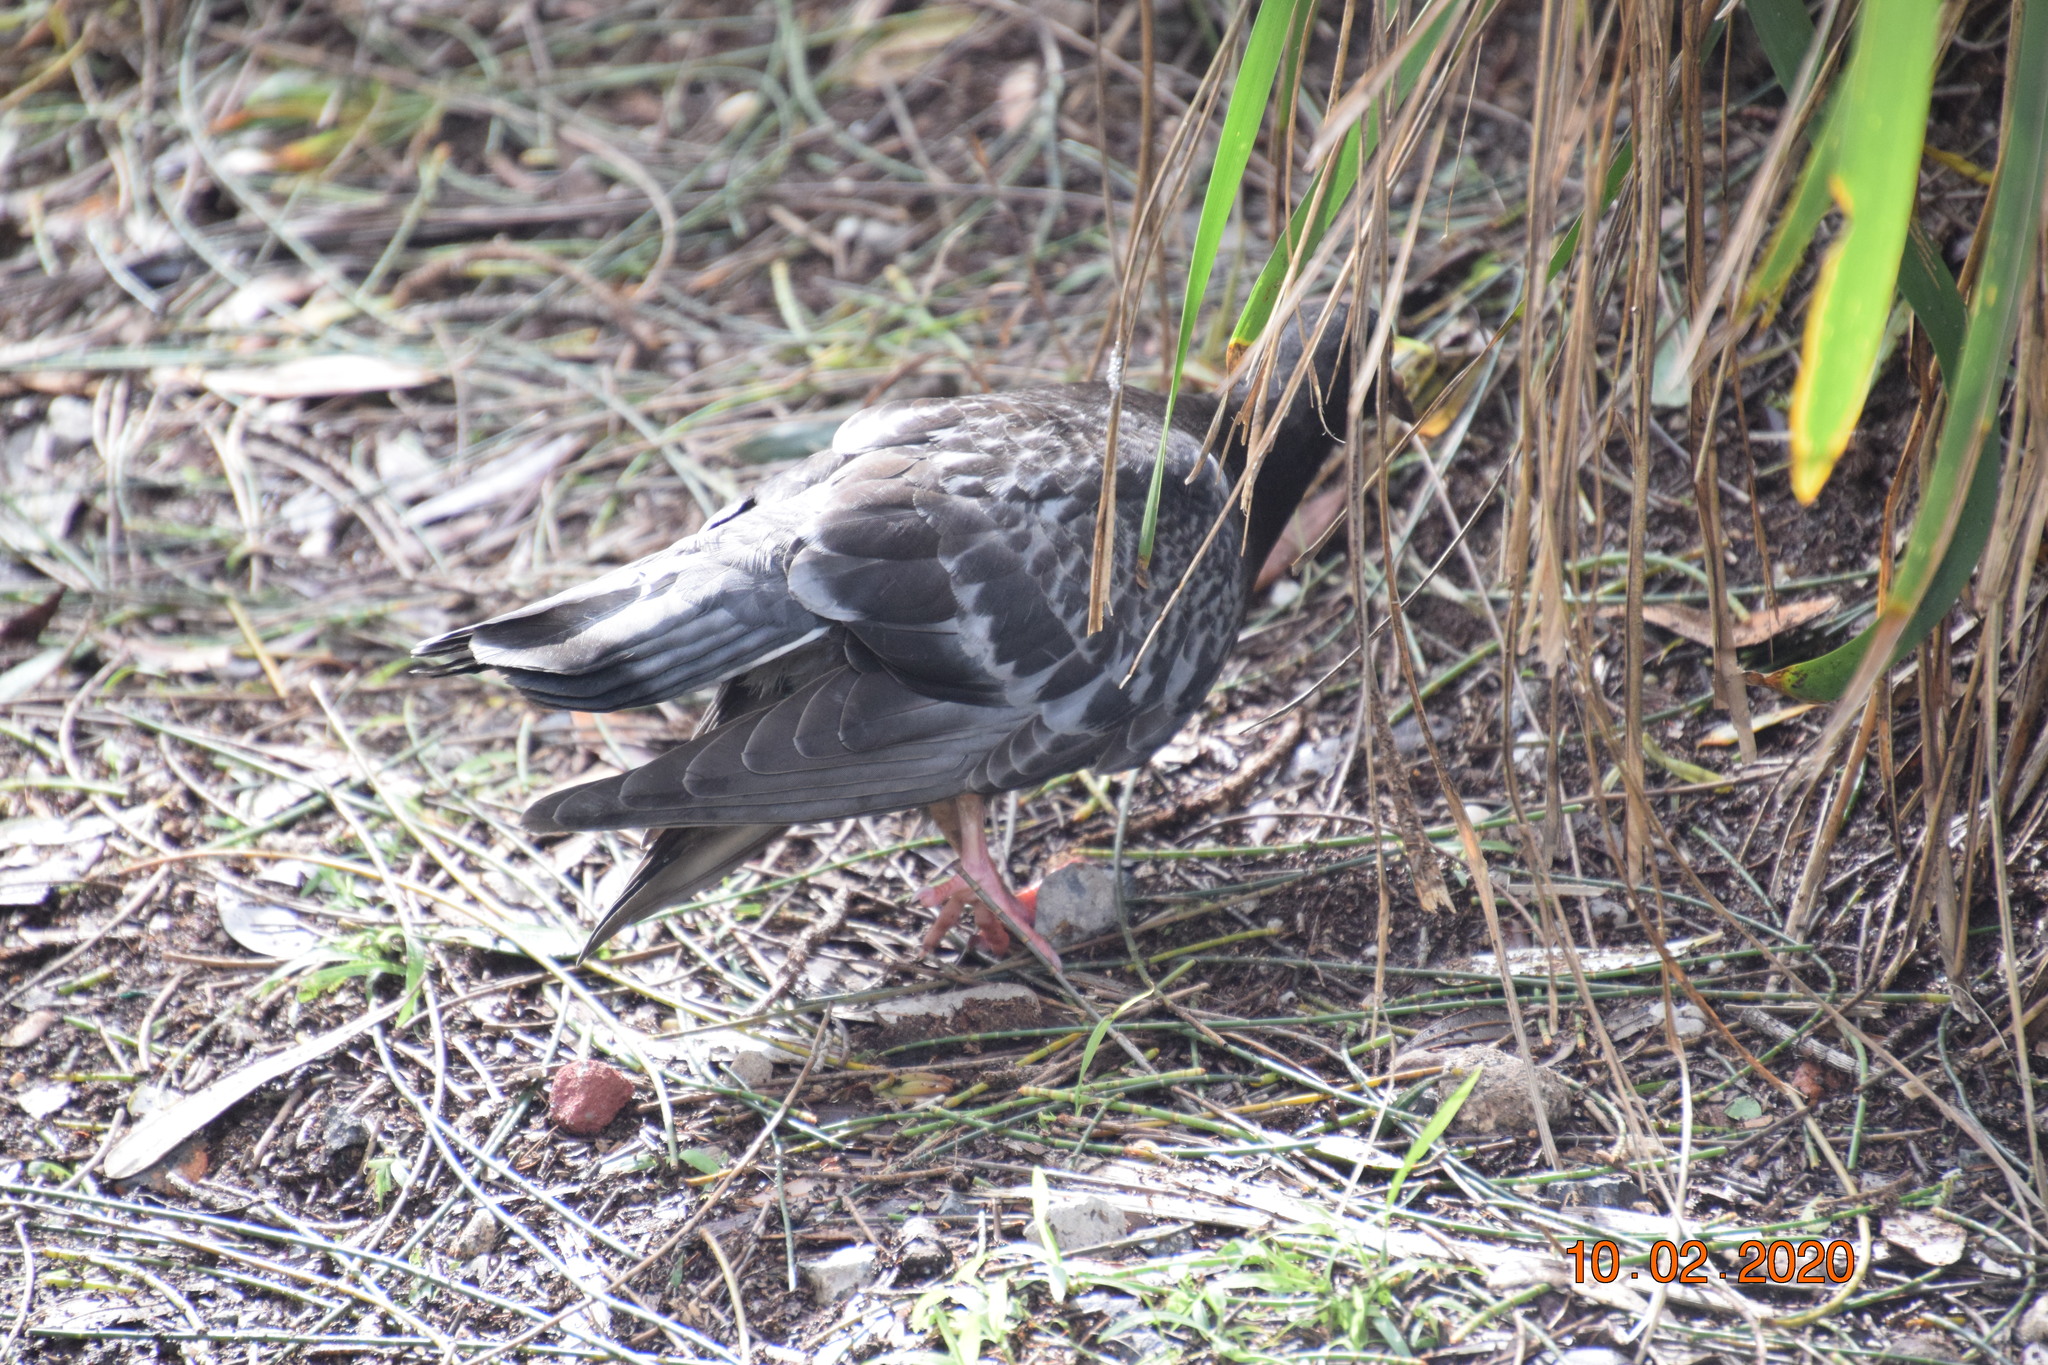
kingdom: Animalia
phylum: Chordata
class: Aves
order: Columbiformes
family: Columbidae
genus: Columba
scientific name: Columba livia
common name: Rock pigeon
